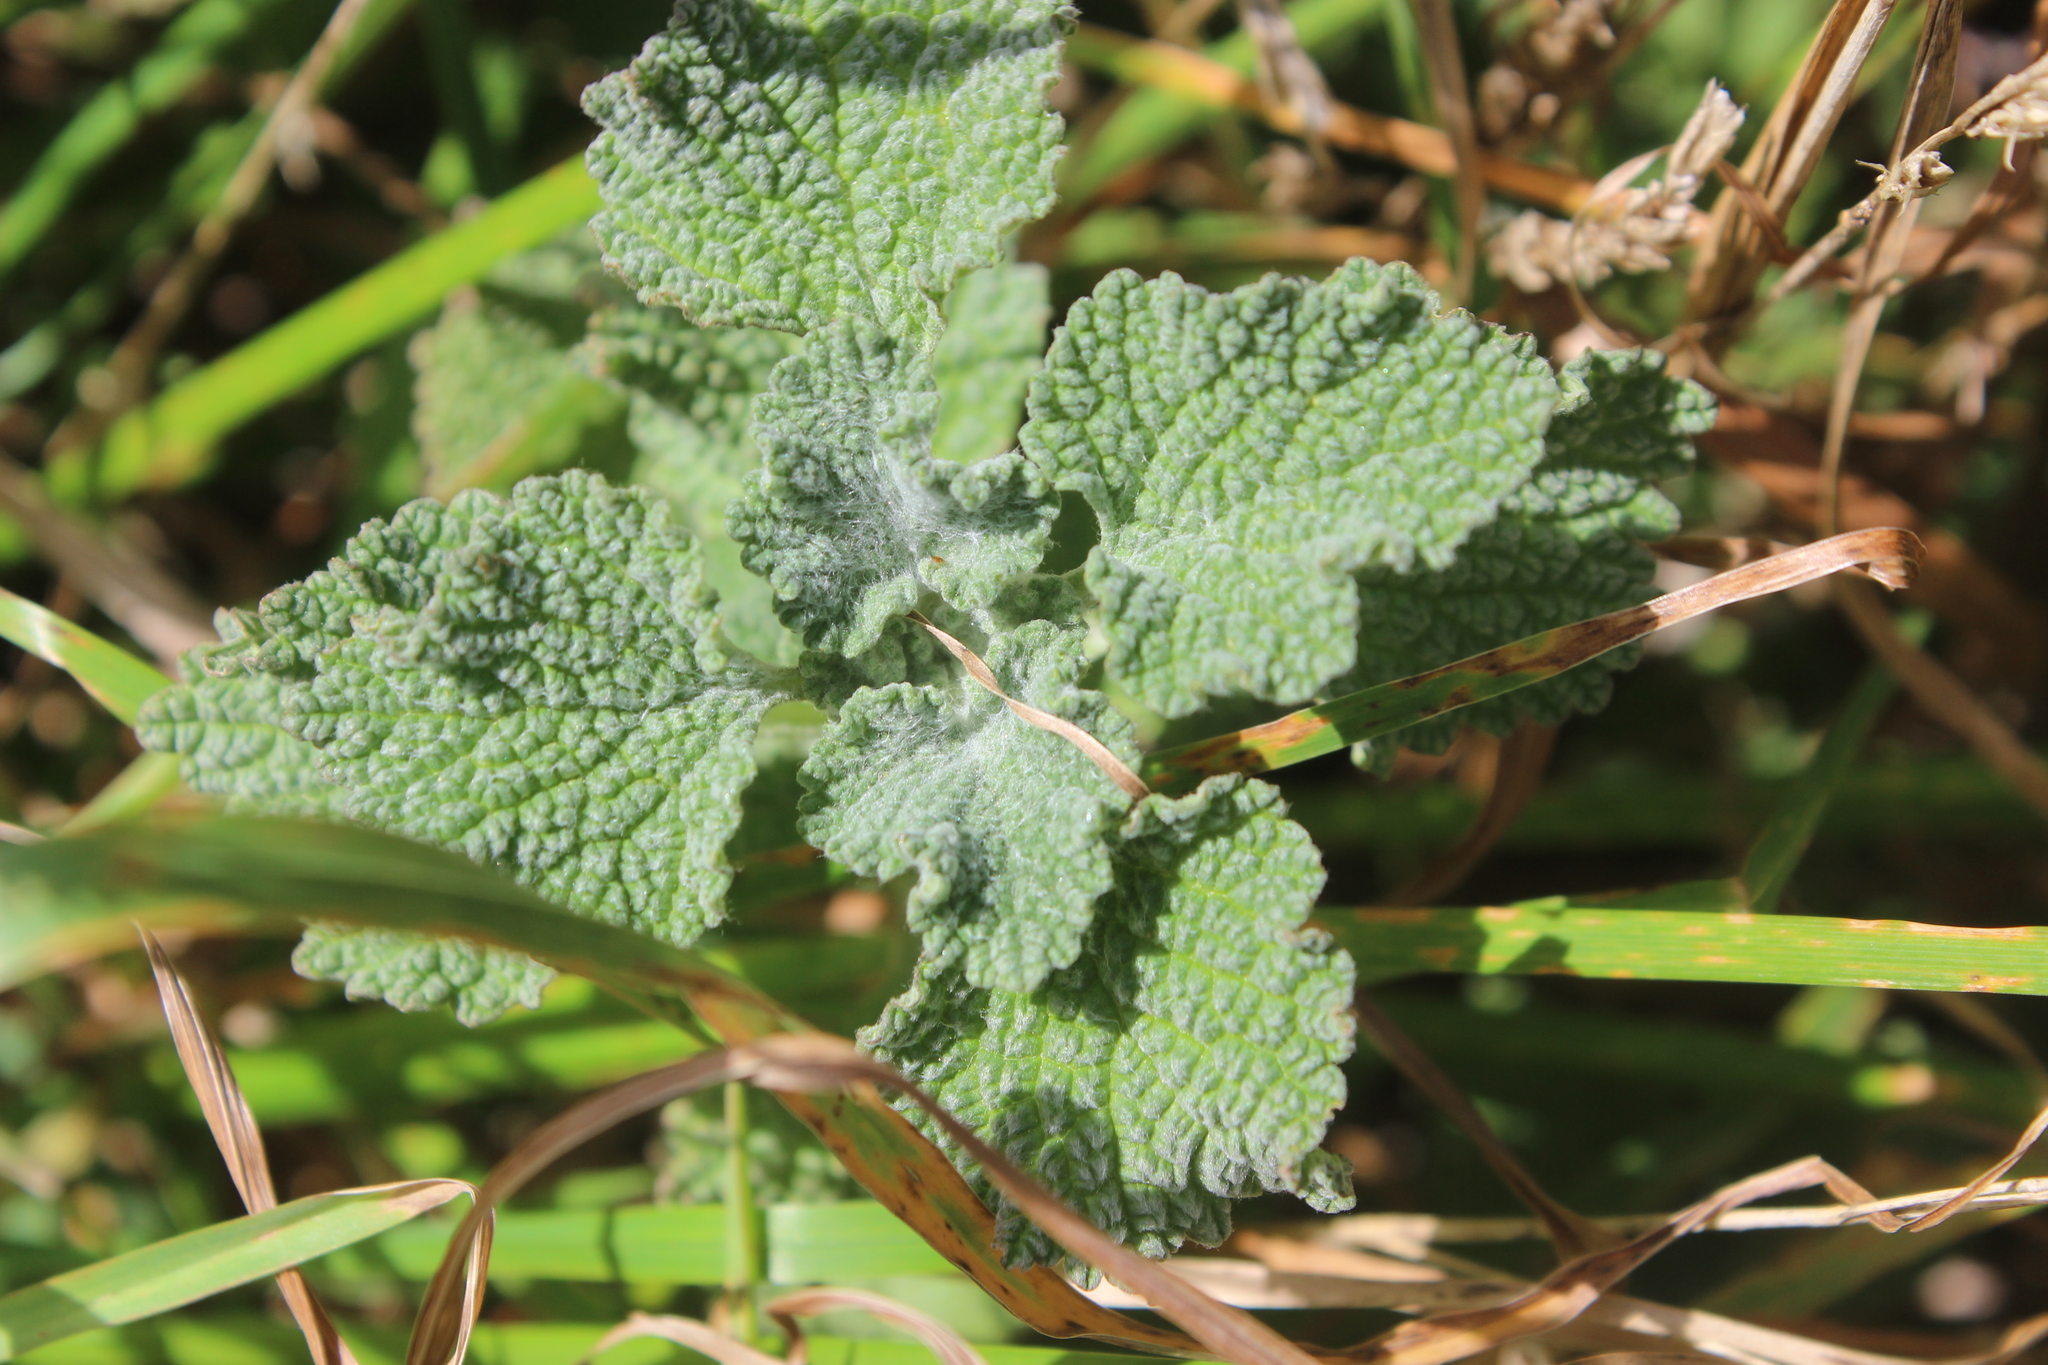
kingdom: Plantae
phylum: Tracheophyta
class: Magnoliopsida
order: Lamiales
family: Lamiaceae
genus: Marrubium
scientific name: Marrubium vulgare
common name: Horehound
